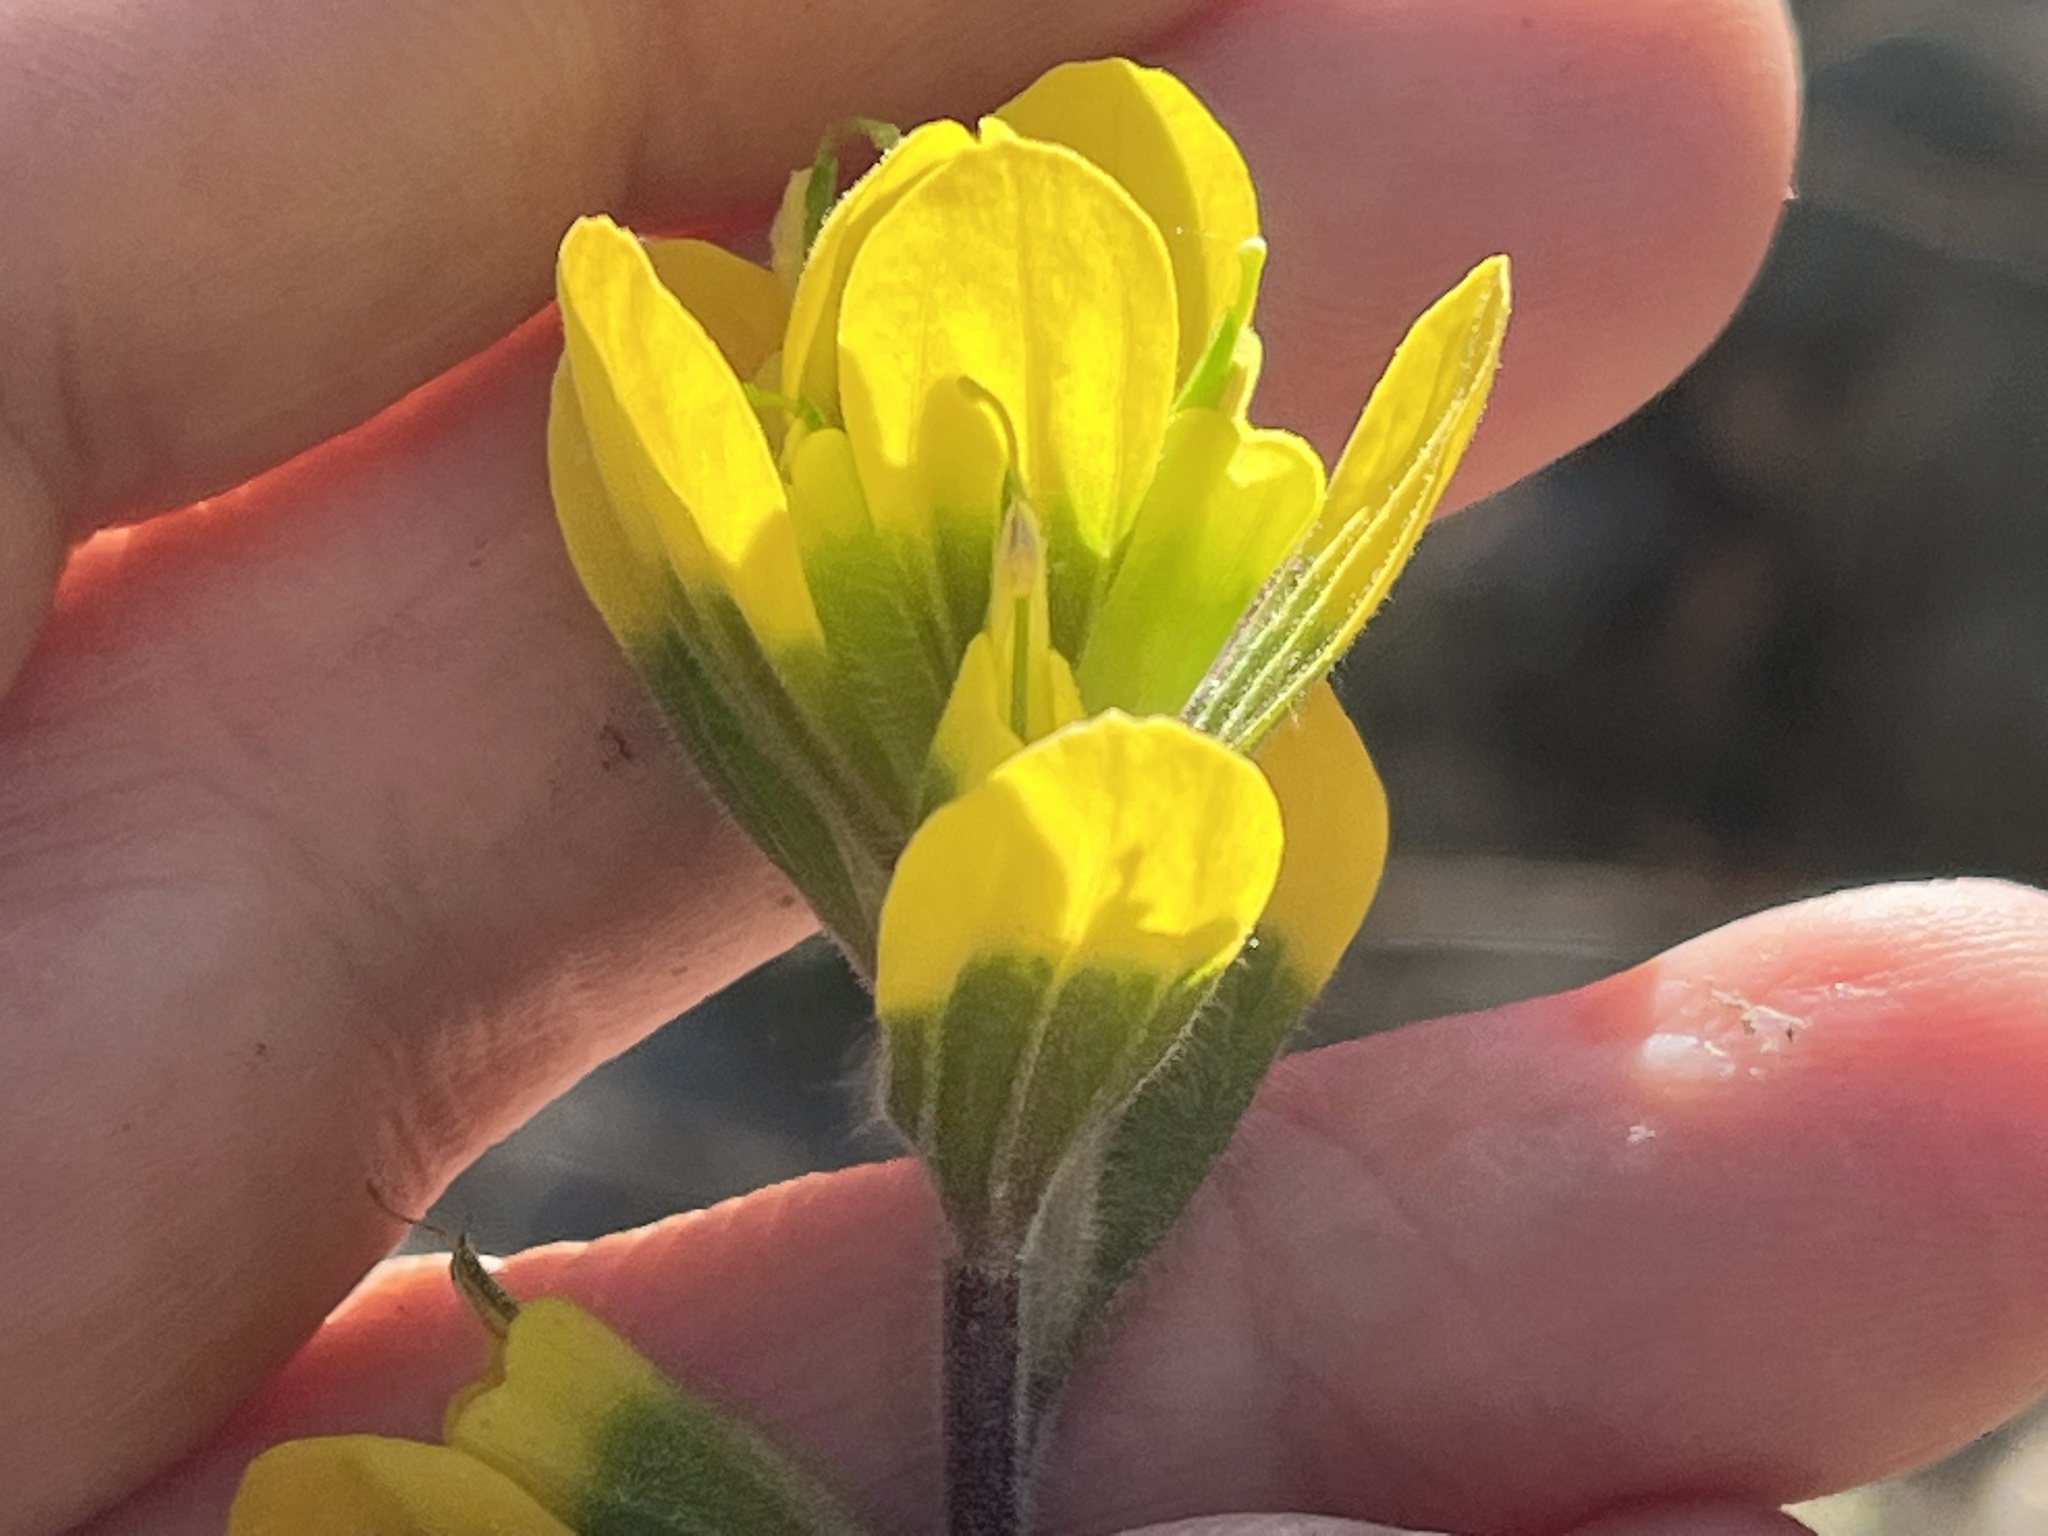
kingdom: Plantae
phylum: Tracheophyta
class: Magnoliopsida
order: Lamiales
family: Orobanchaceae
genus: Castilleja
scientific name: Castilleja kraliana
